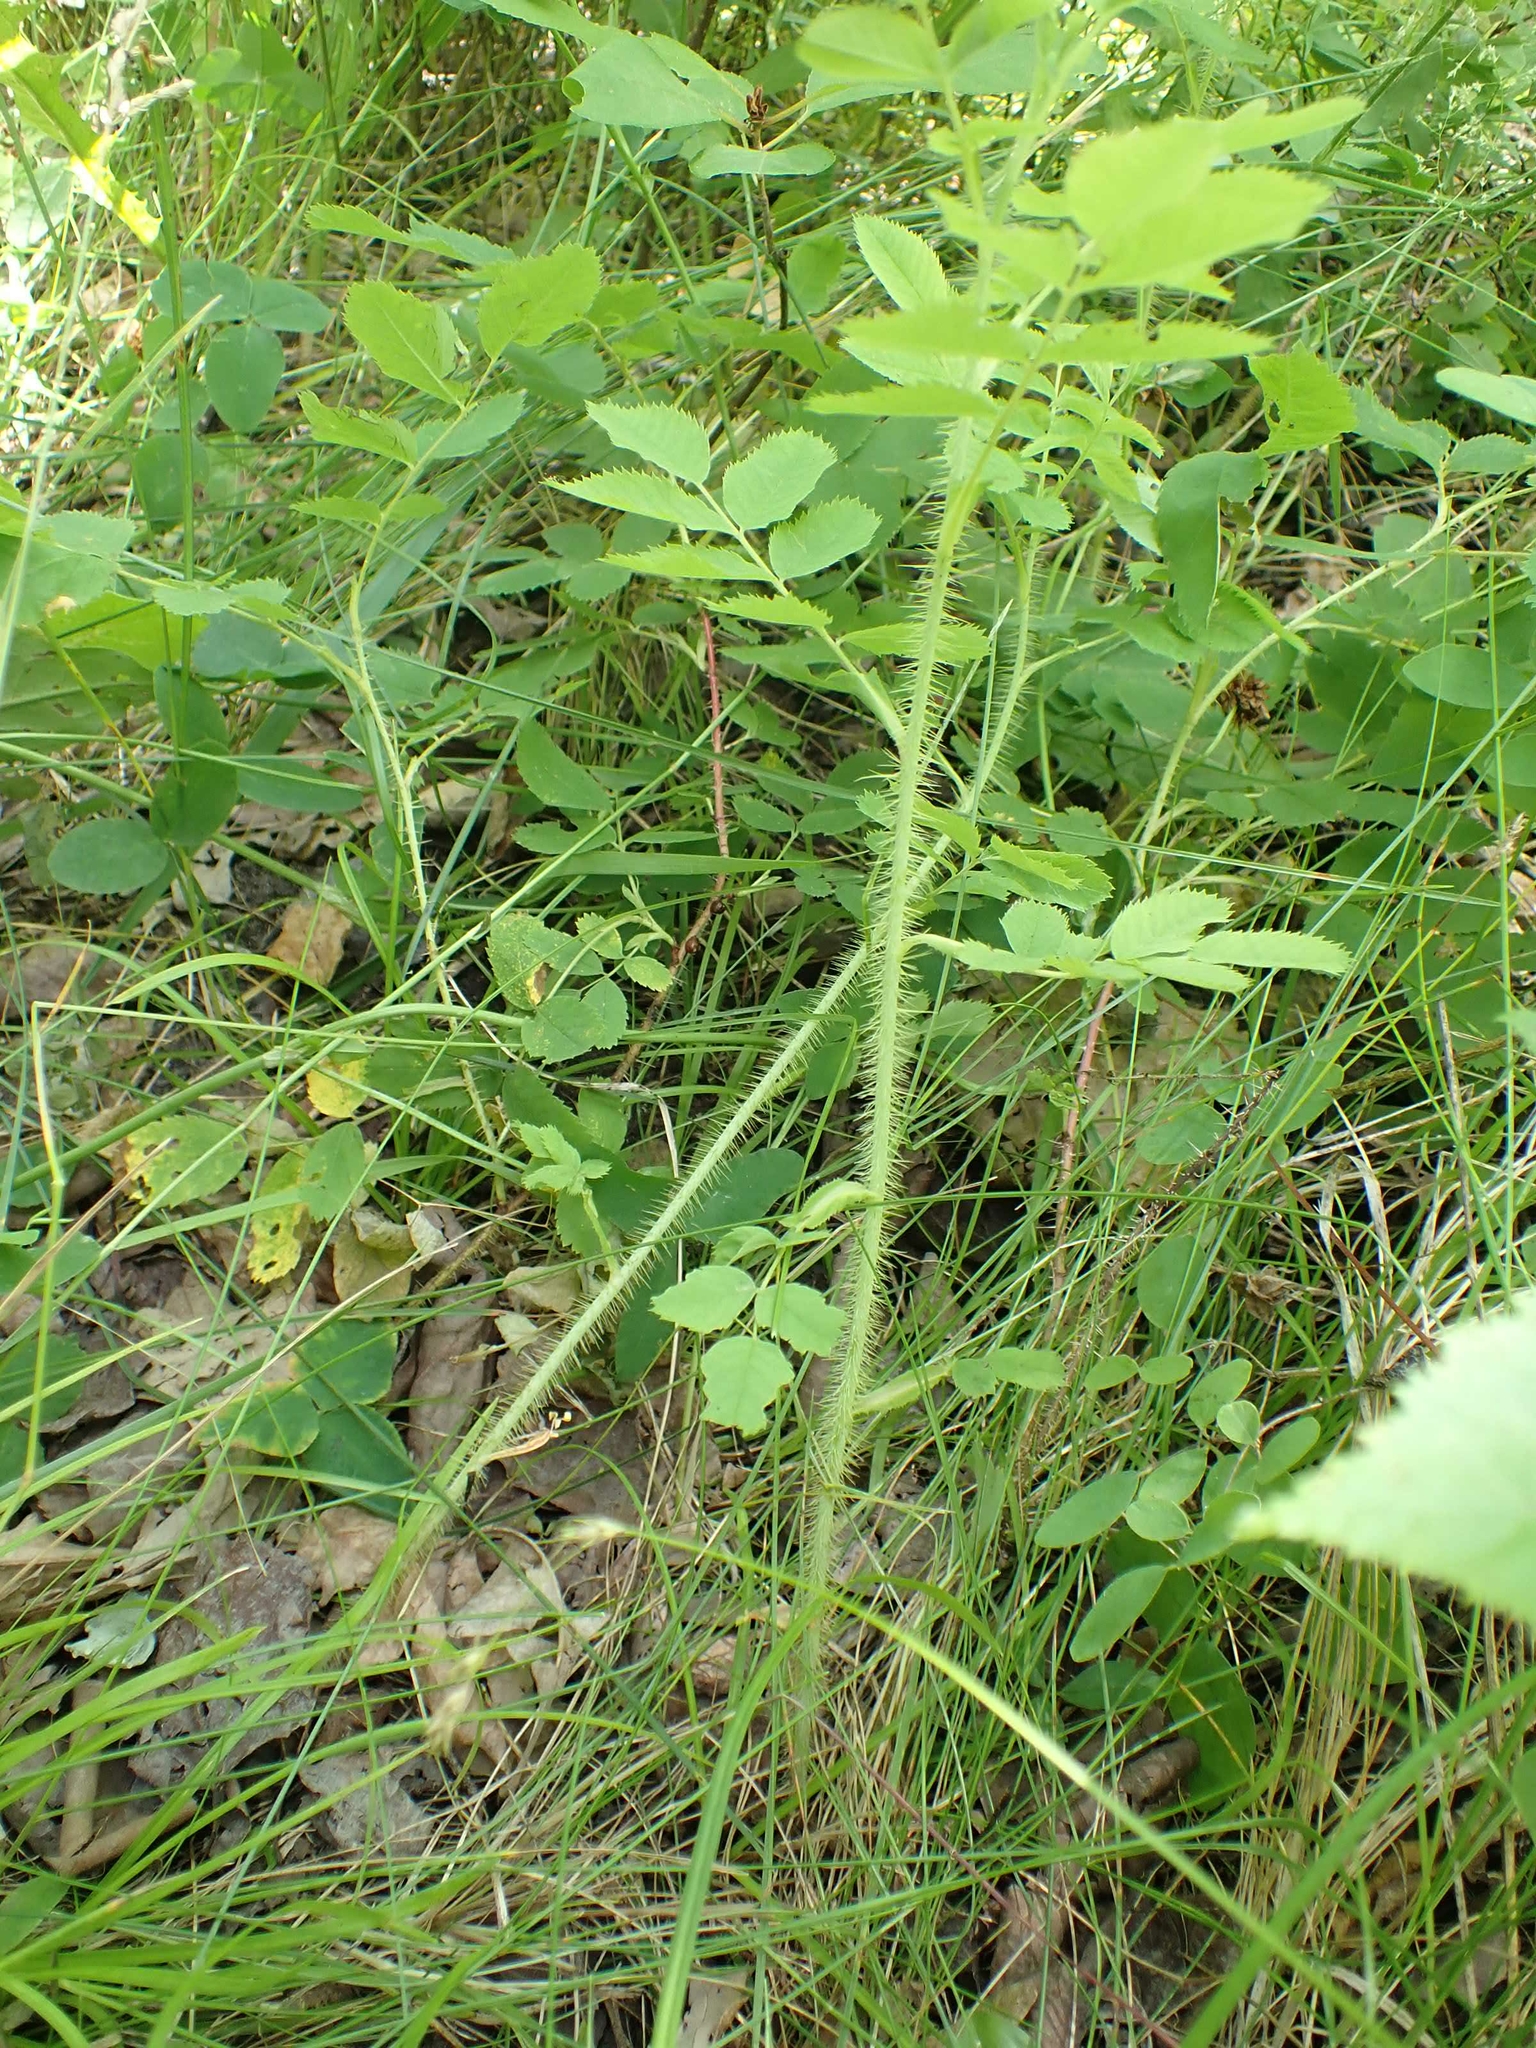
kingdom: Plantae
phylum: Tracheophyta
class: Magnoliopsida
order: Rosales
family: Rosaceae
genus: Rosa
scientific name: Rosa acicularis
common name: Prickly rose
